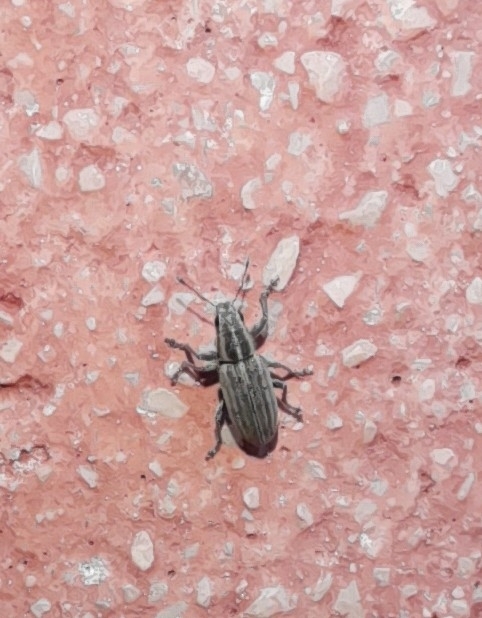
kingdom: Animalia
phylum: Arthropoda
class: Insecta
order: Coleoptera
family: Curculionidae
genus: Sitona
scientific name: Sitona lineatus
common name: Weevil
